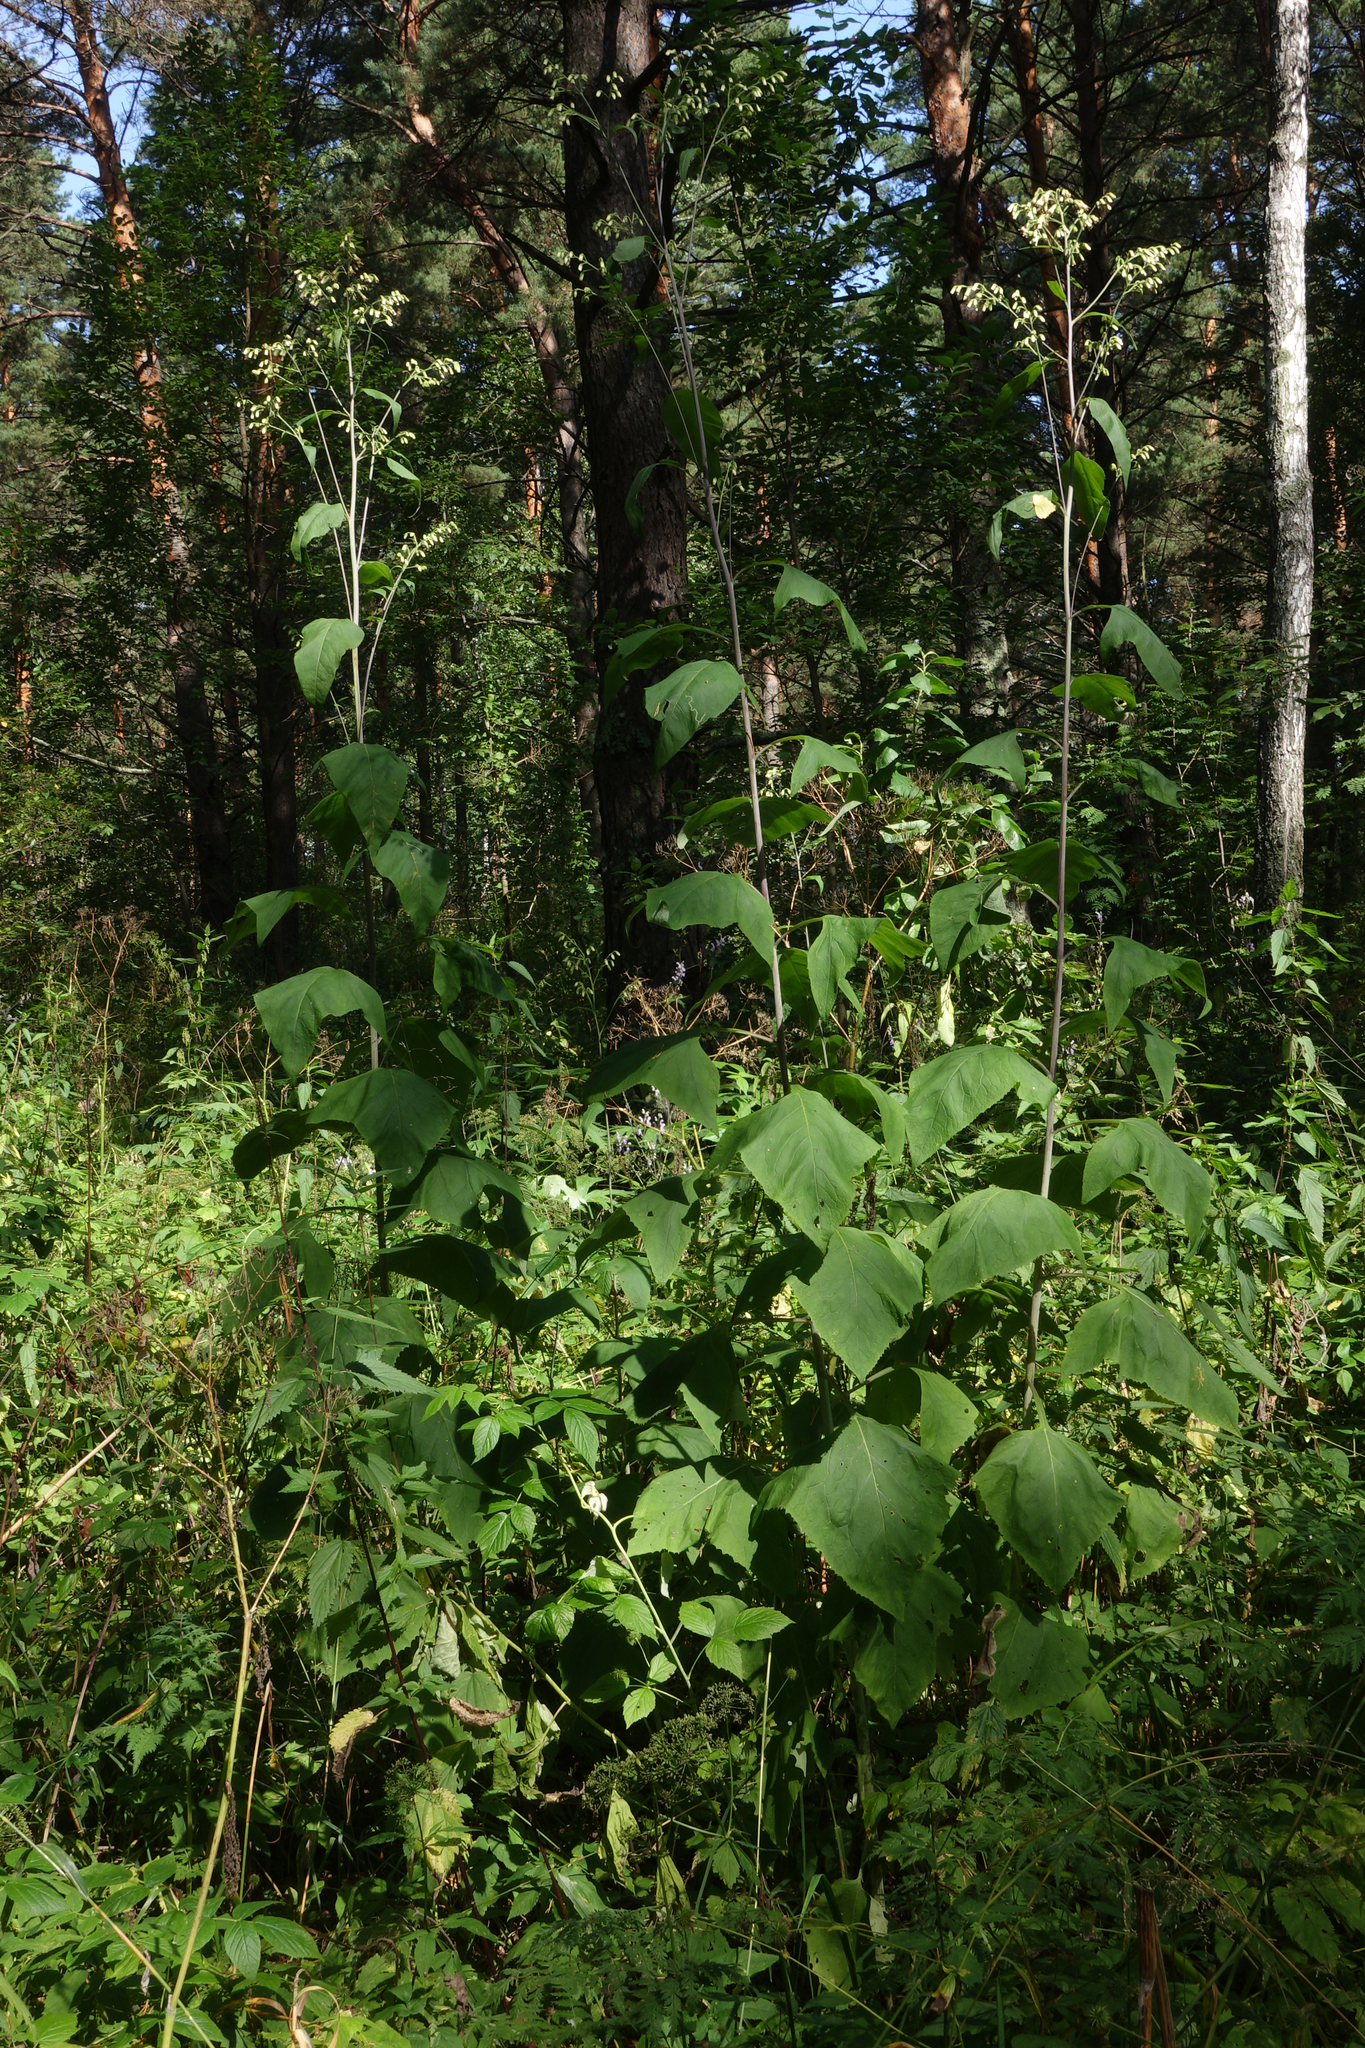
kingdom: Plantae
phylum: Tracheophyta
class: Magnoliopsida
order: Asterales
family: Asteraceae
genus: Parasenecio
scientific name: Parasenecio hastatus
